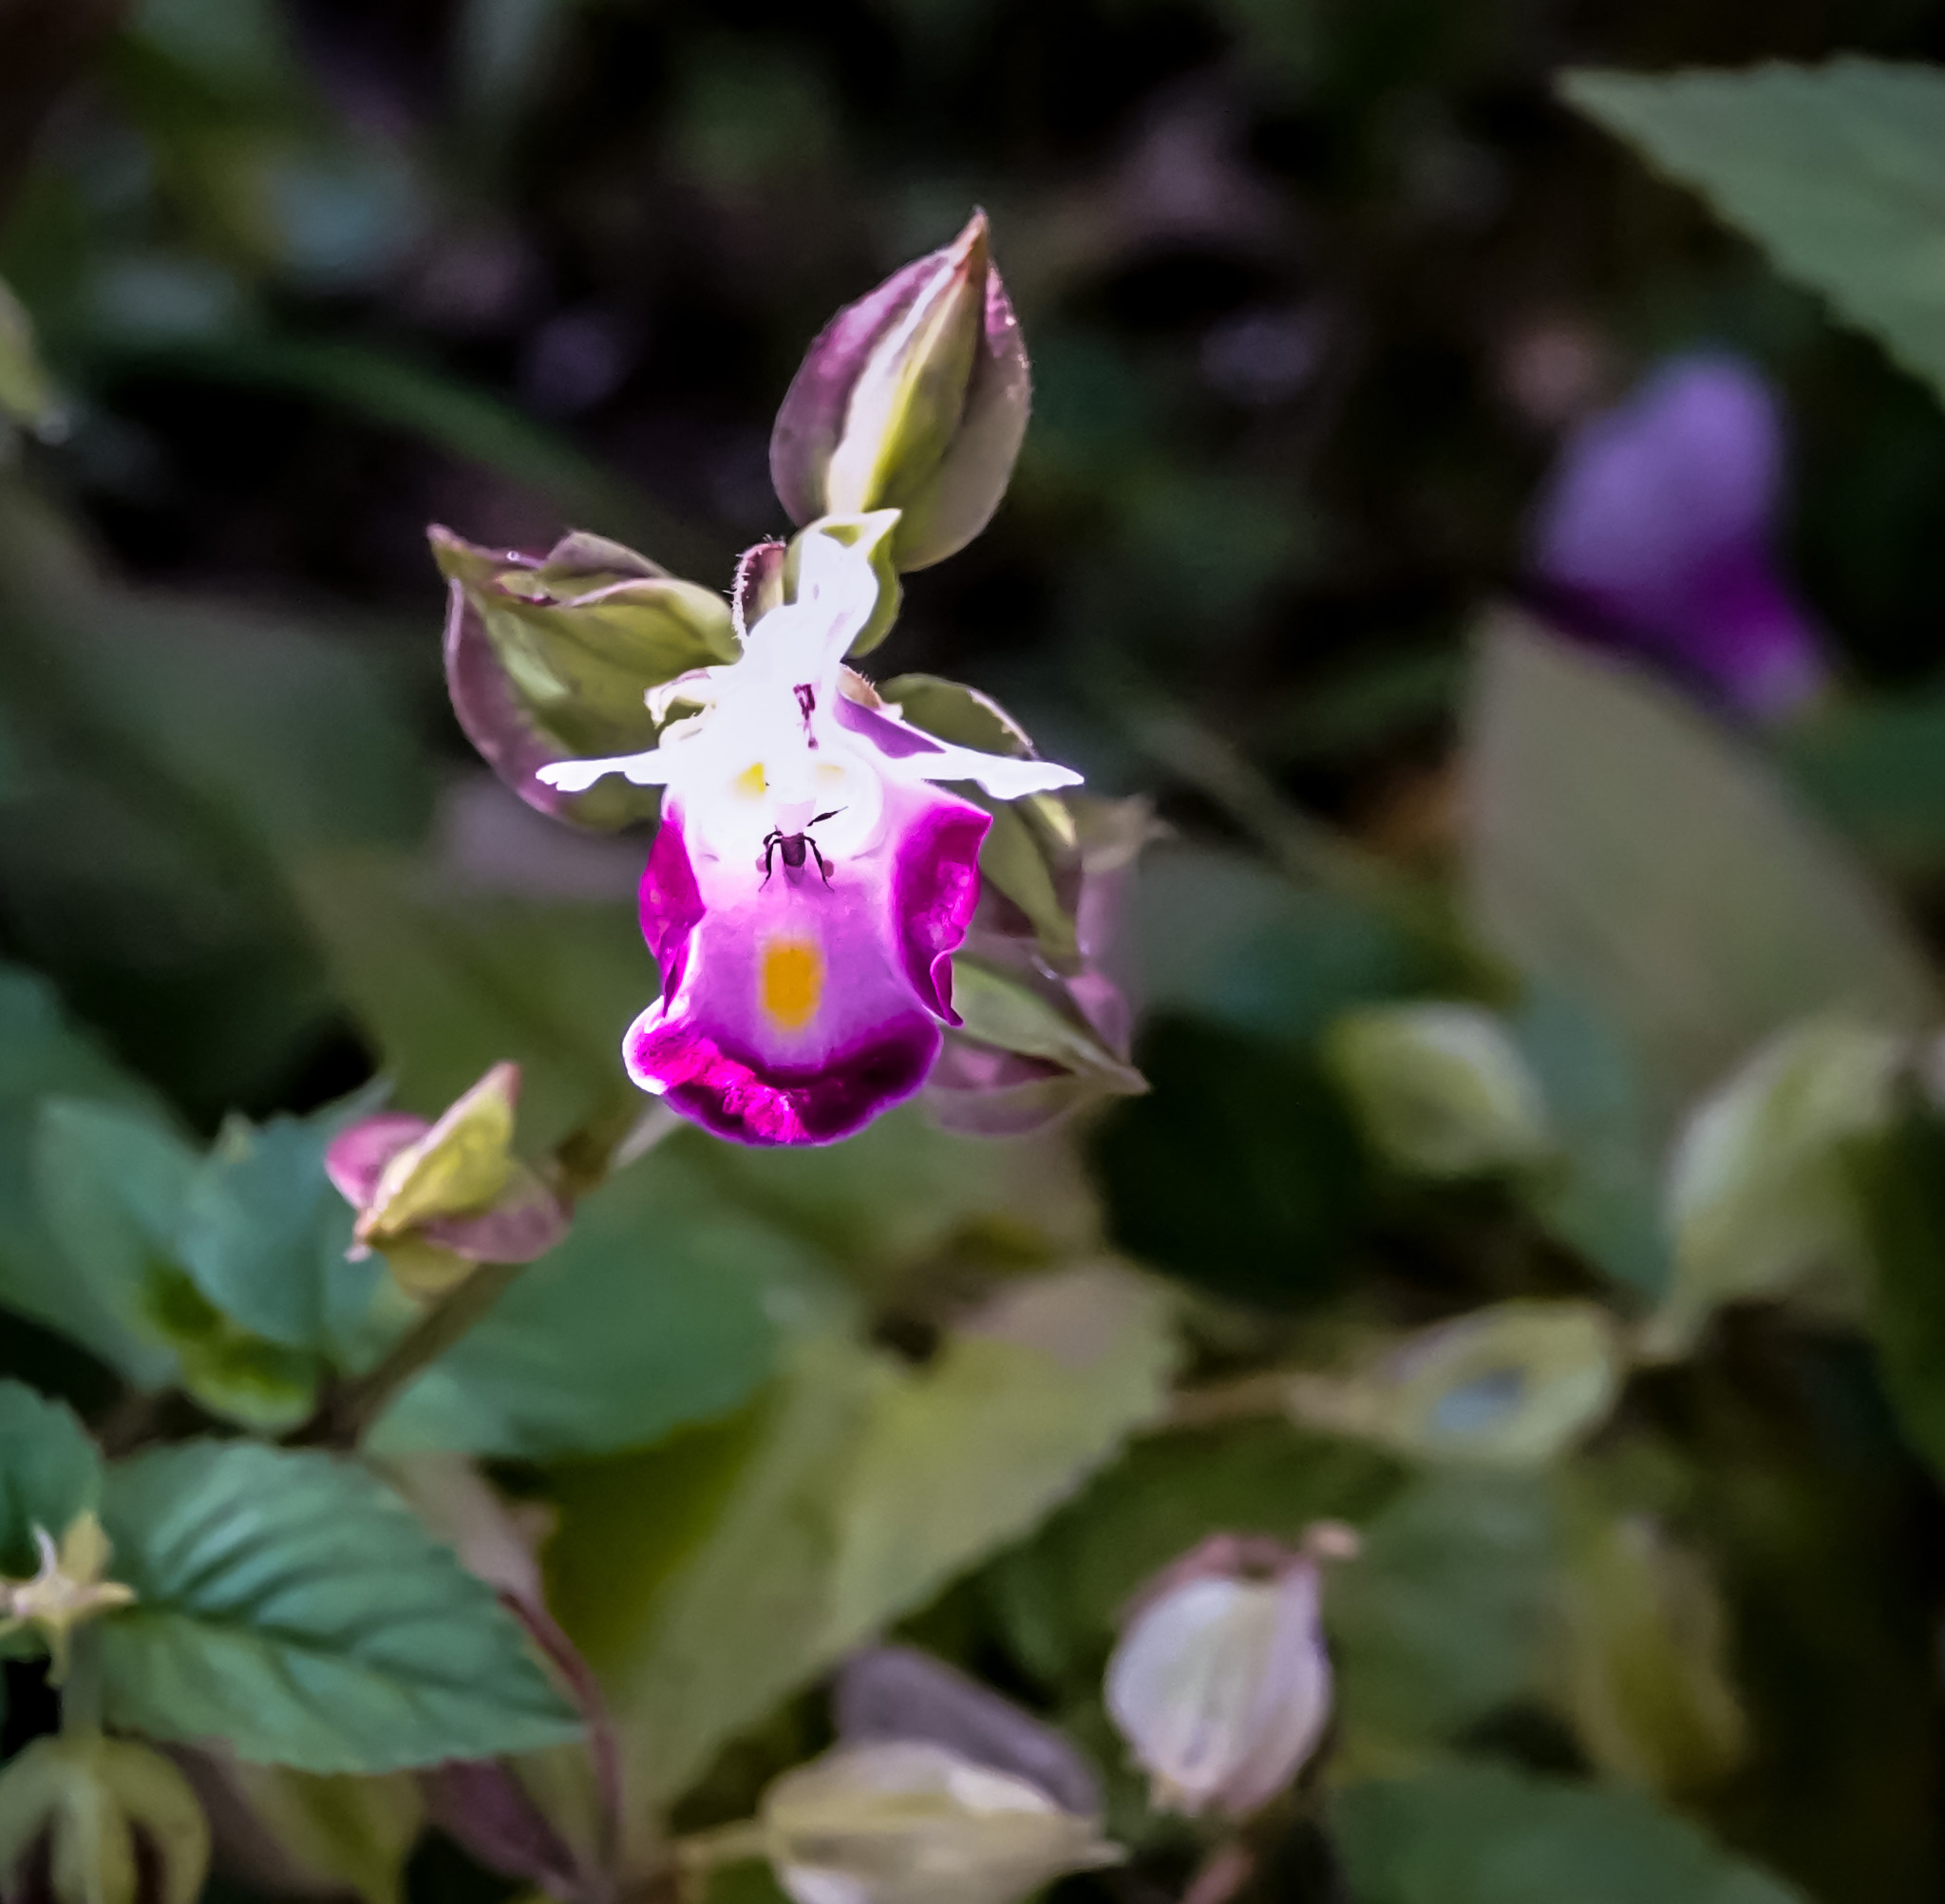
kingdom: Plantae
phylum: Tracheophyta
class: Magnoliopsida
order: Lamiales
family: Linderniaceae
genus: Torenia
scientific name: Torenia fournieri
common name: Bluewings
